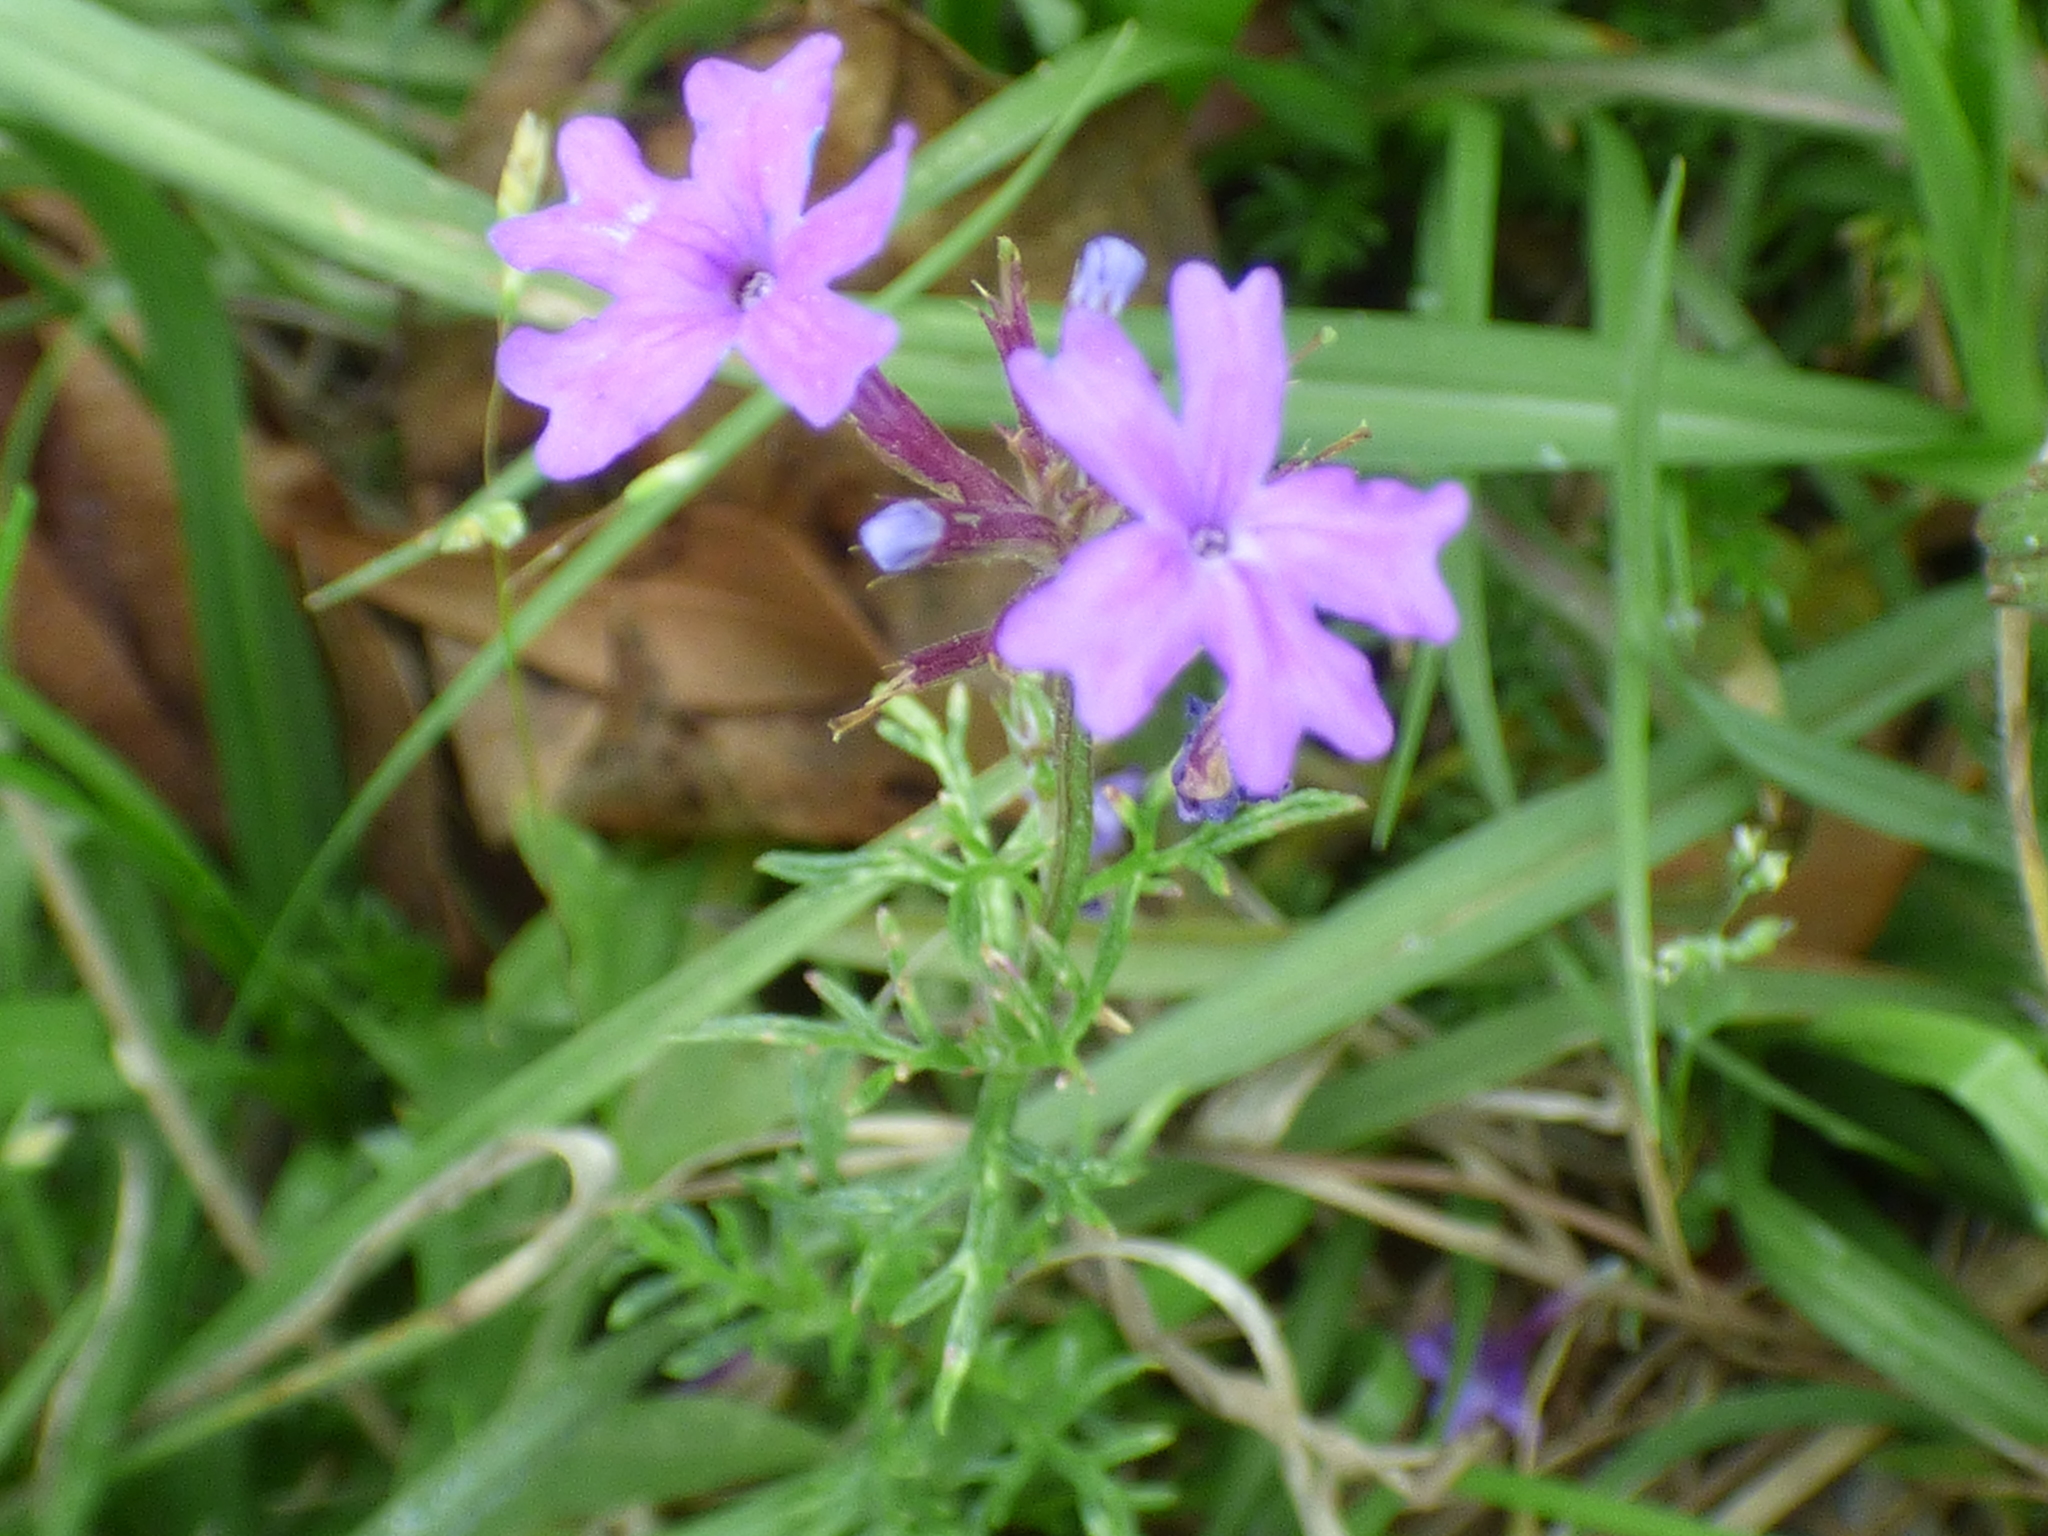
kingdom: Plantae
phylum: Tracheophyta
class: Magnoliopsida
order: Lamiales
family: Verbenaceae
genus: Verbena
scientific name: Verbena
